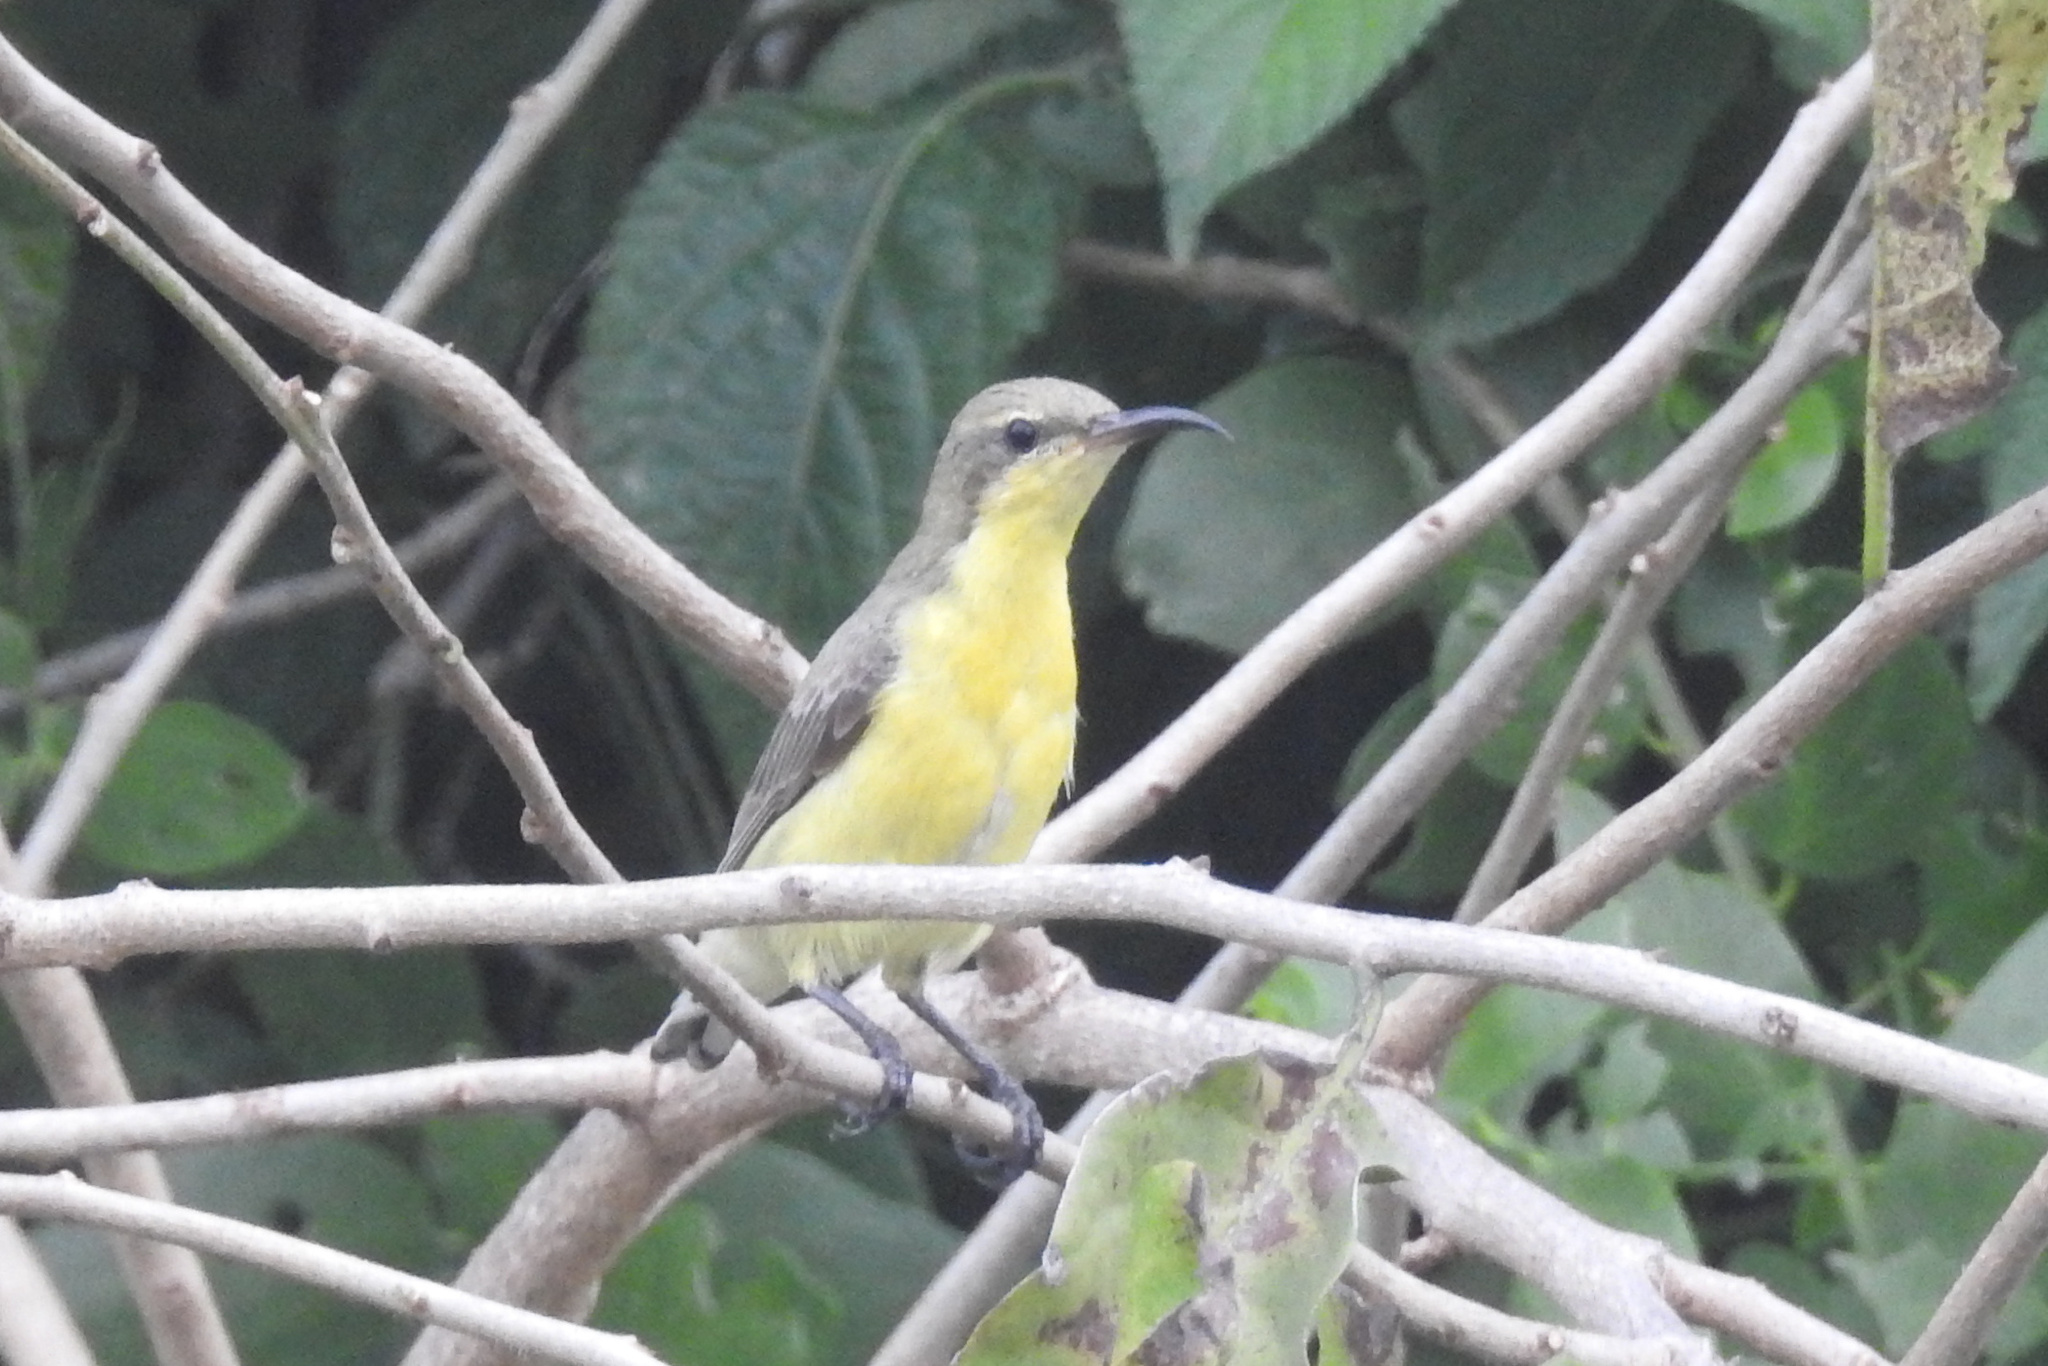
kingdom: Animalia
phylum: Chordata
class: Aves
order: Passeriformes
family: Nectariniidae
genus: Cinnyris
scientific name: Cinnyris asiaticus
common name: Purple sunbird
